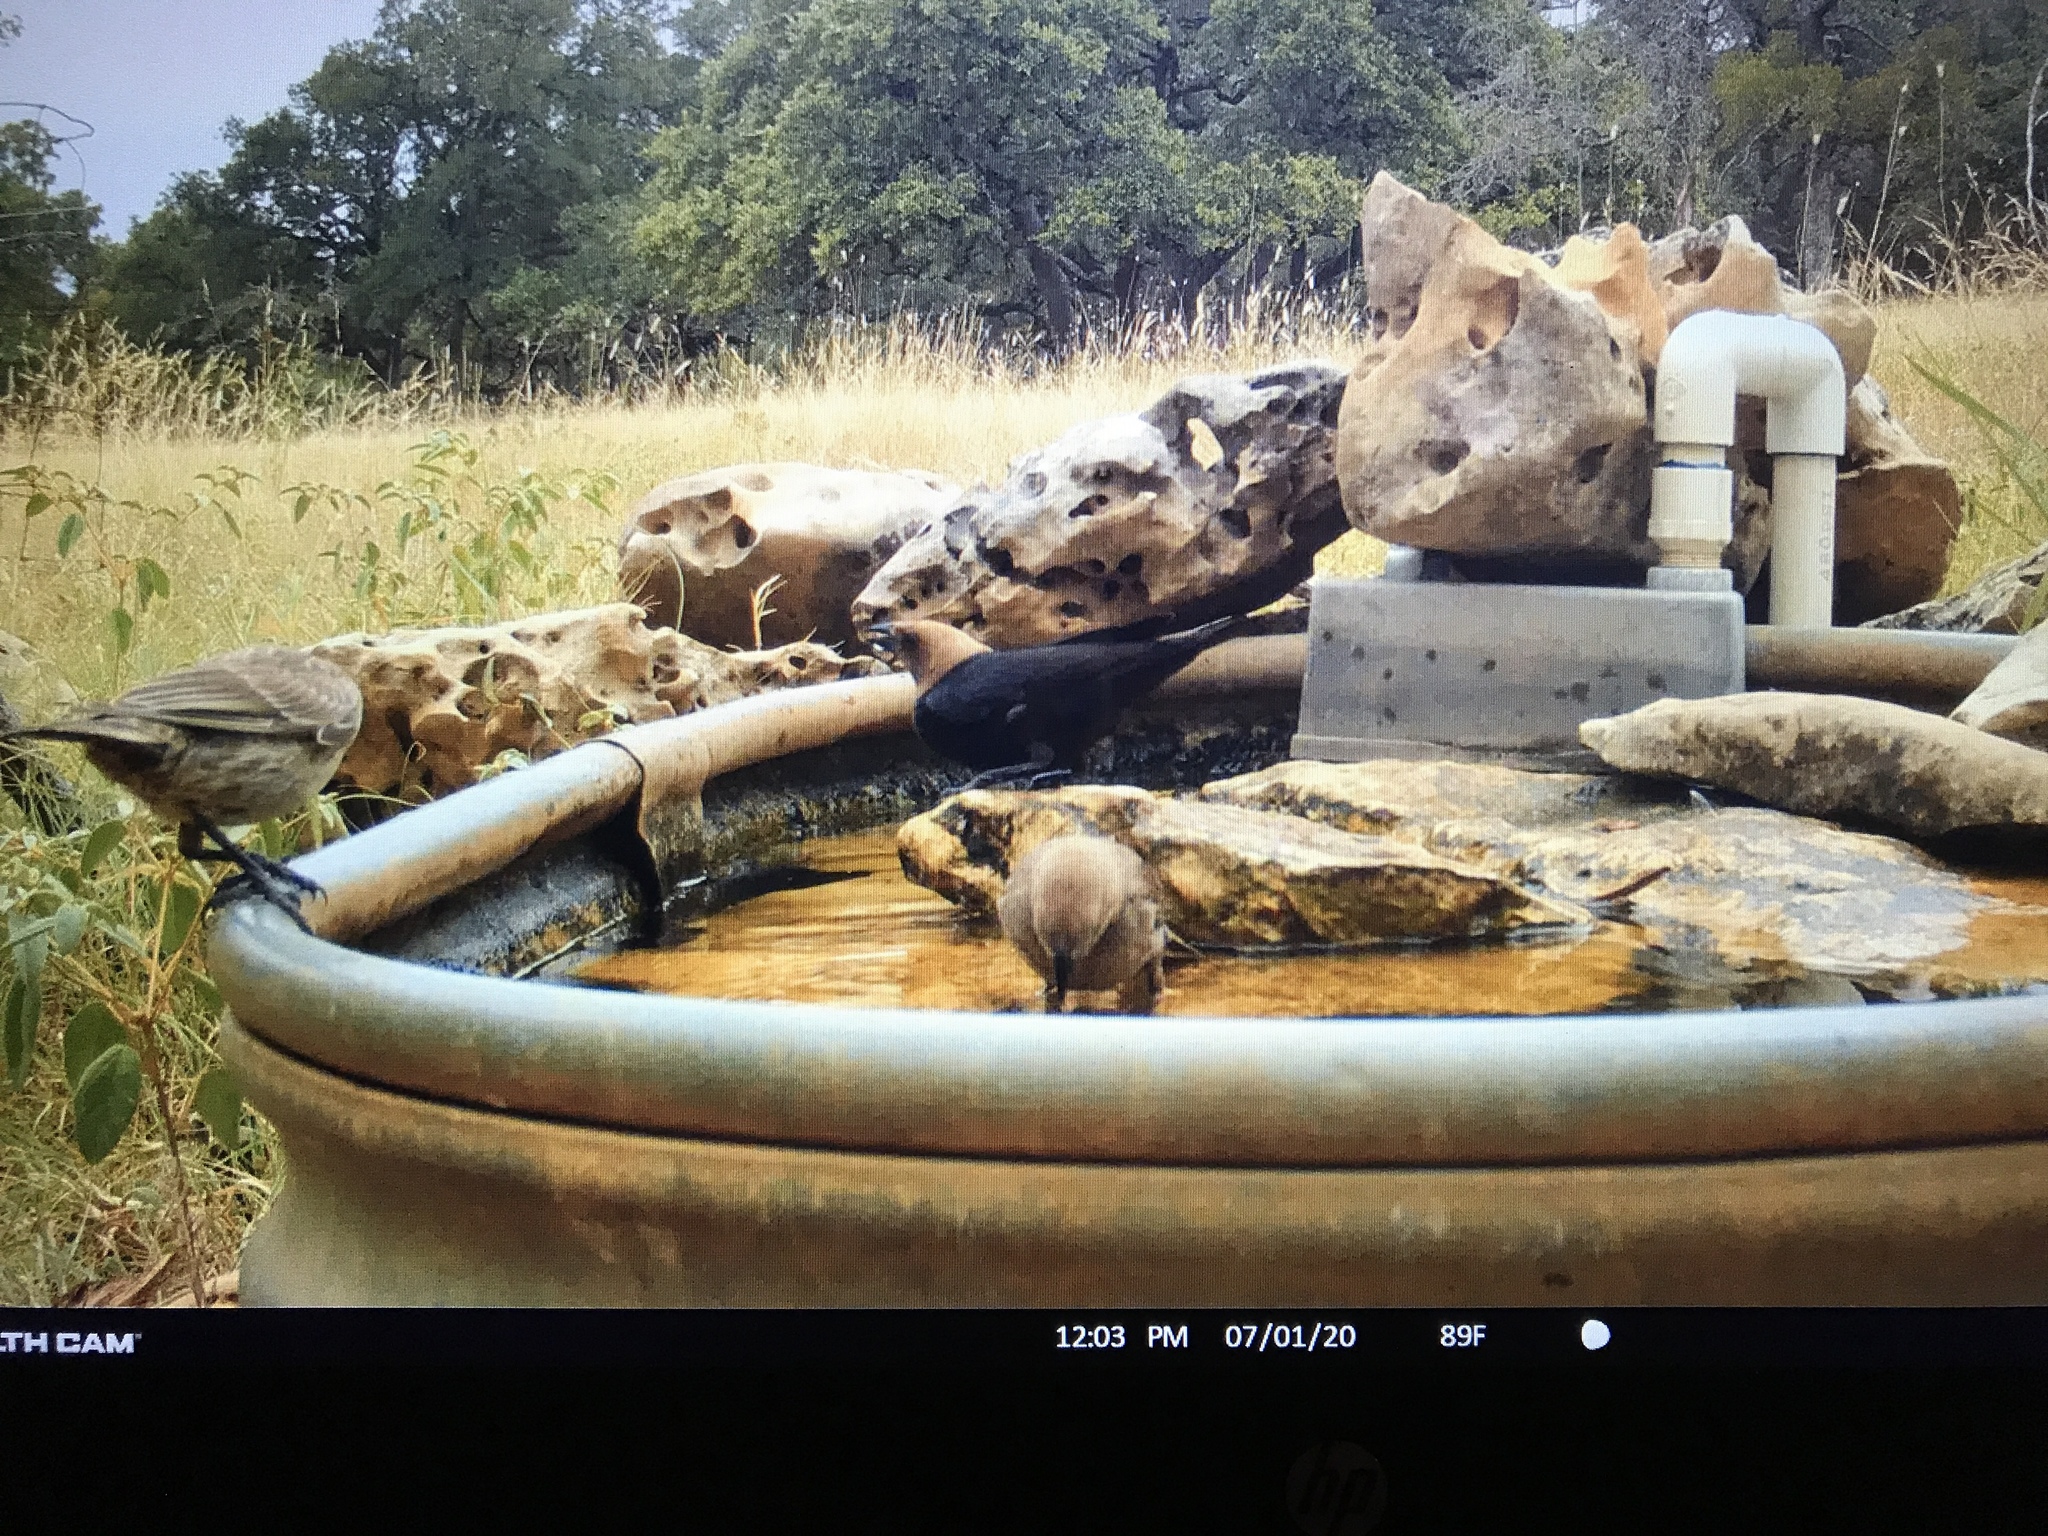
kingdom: Animalia
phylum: Chordata
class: Aves
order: Passeriformes
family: Icteridae
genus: Molothrus
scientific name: Molothrus ater
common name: Brown-headed cowbird
